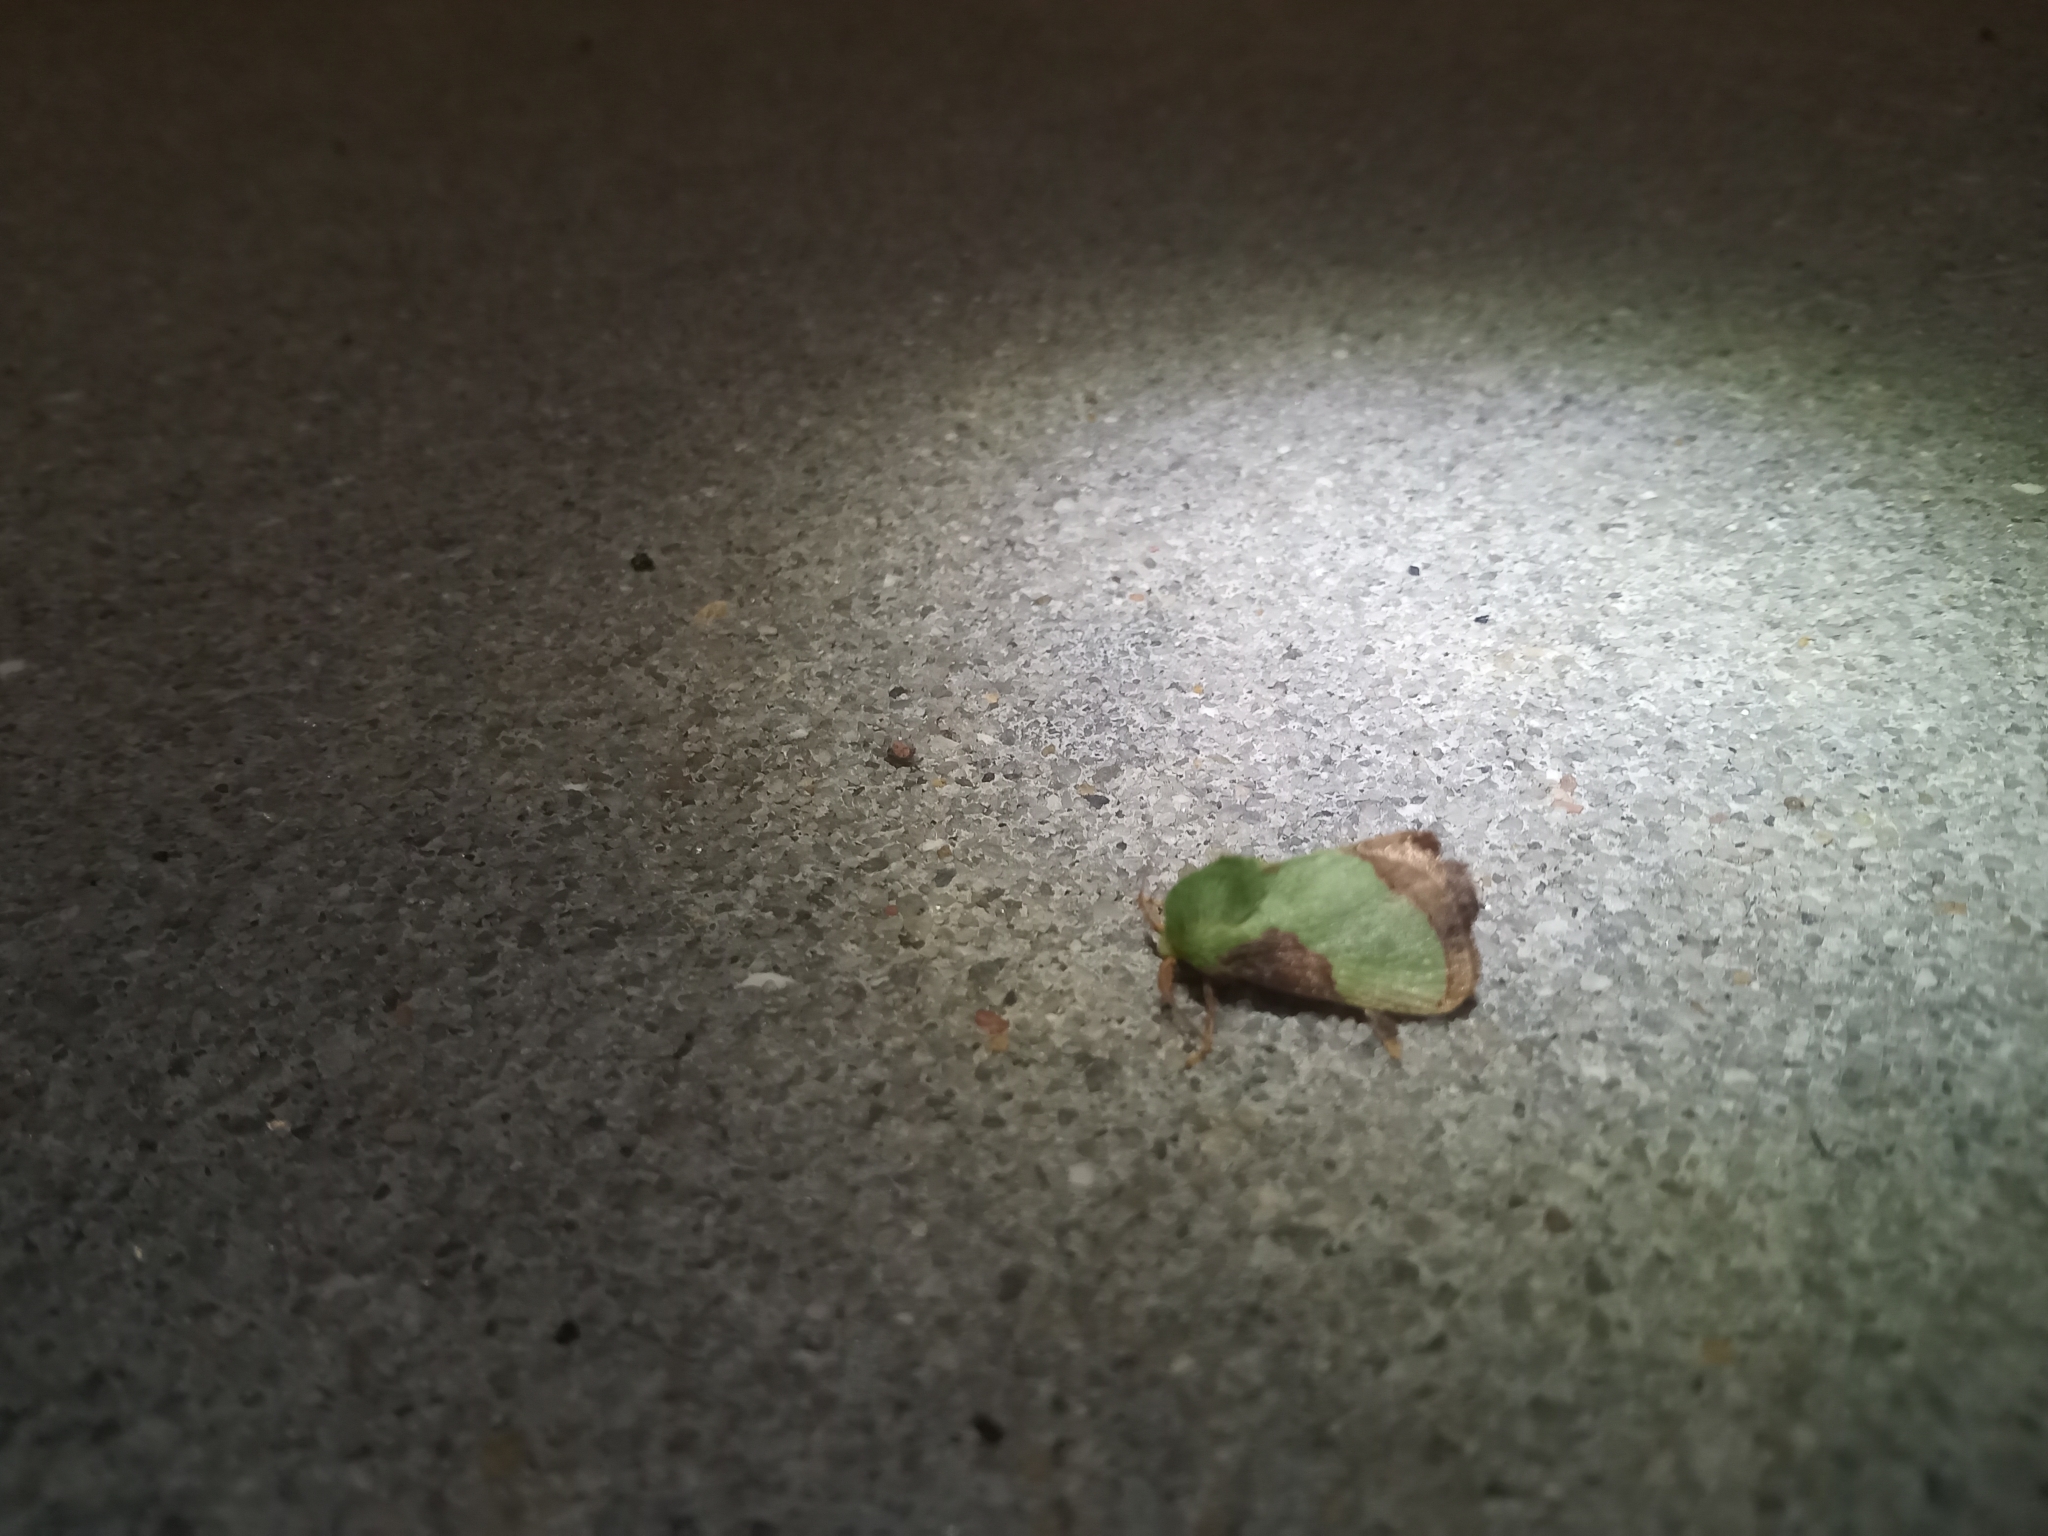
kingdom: Animalia
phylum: Arthropoda
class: Insecta
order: Lepidoptera
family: Limacodidae
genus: Parasa
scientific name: Parasa indetermina
